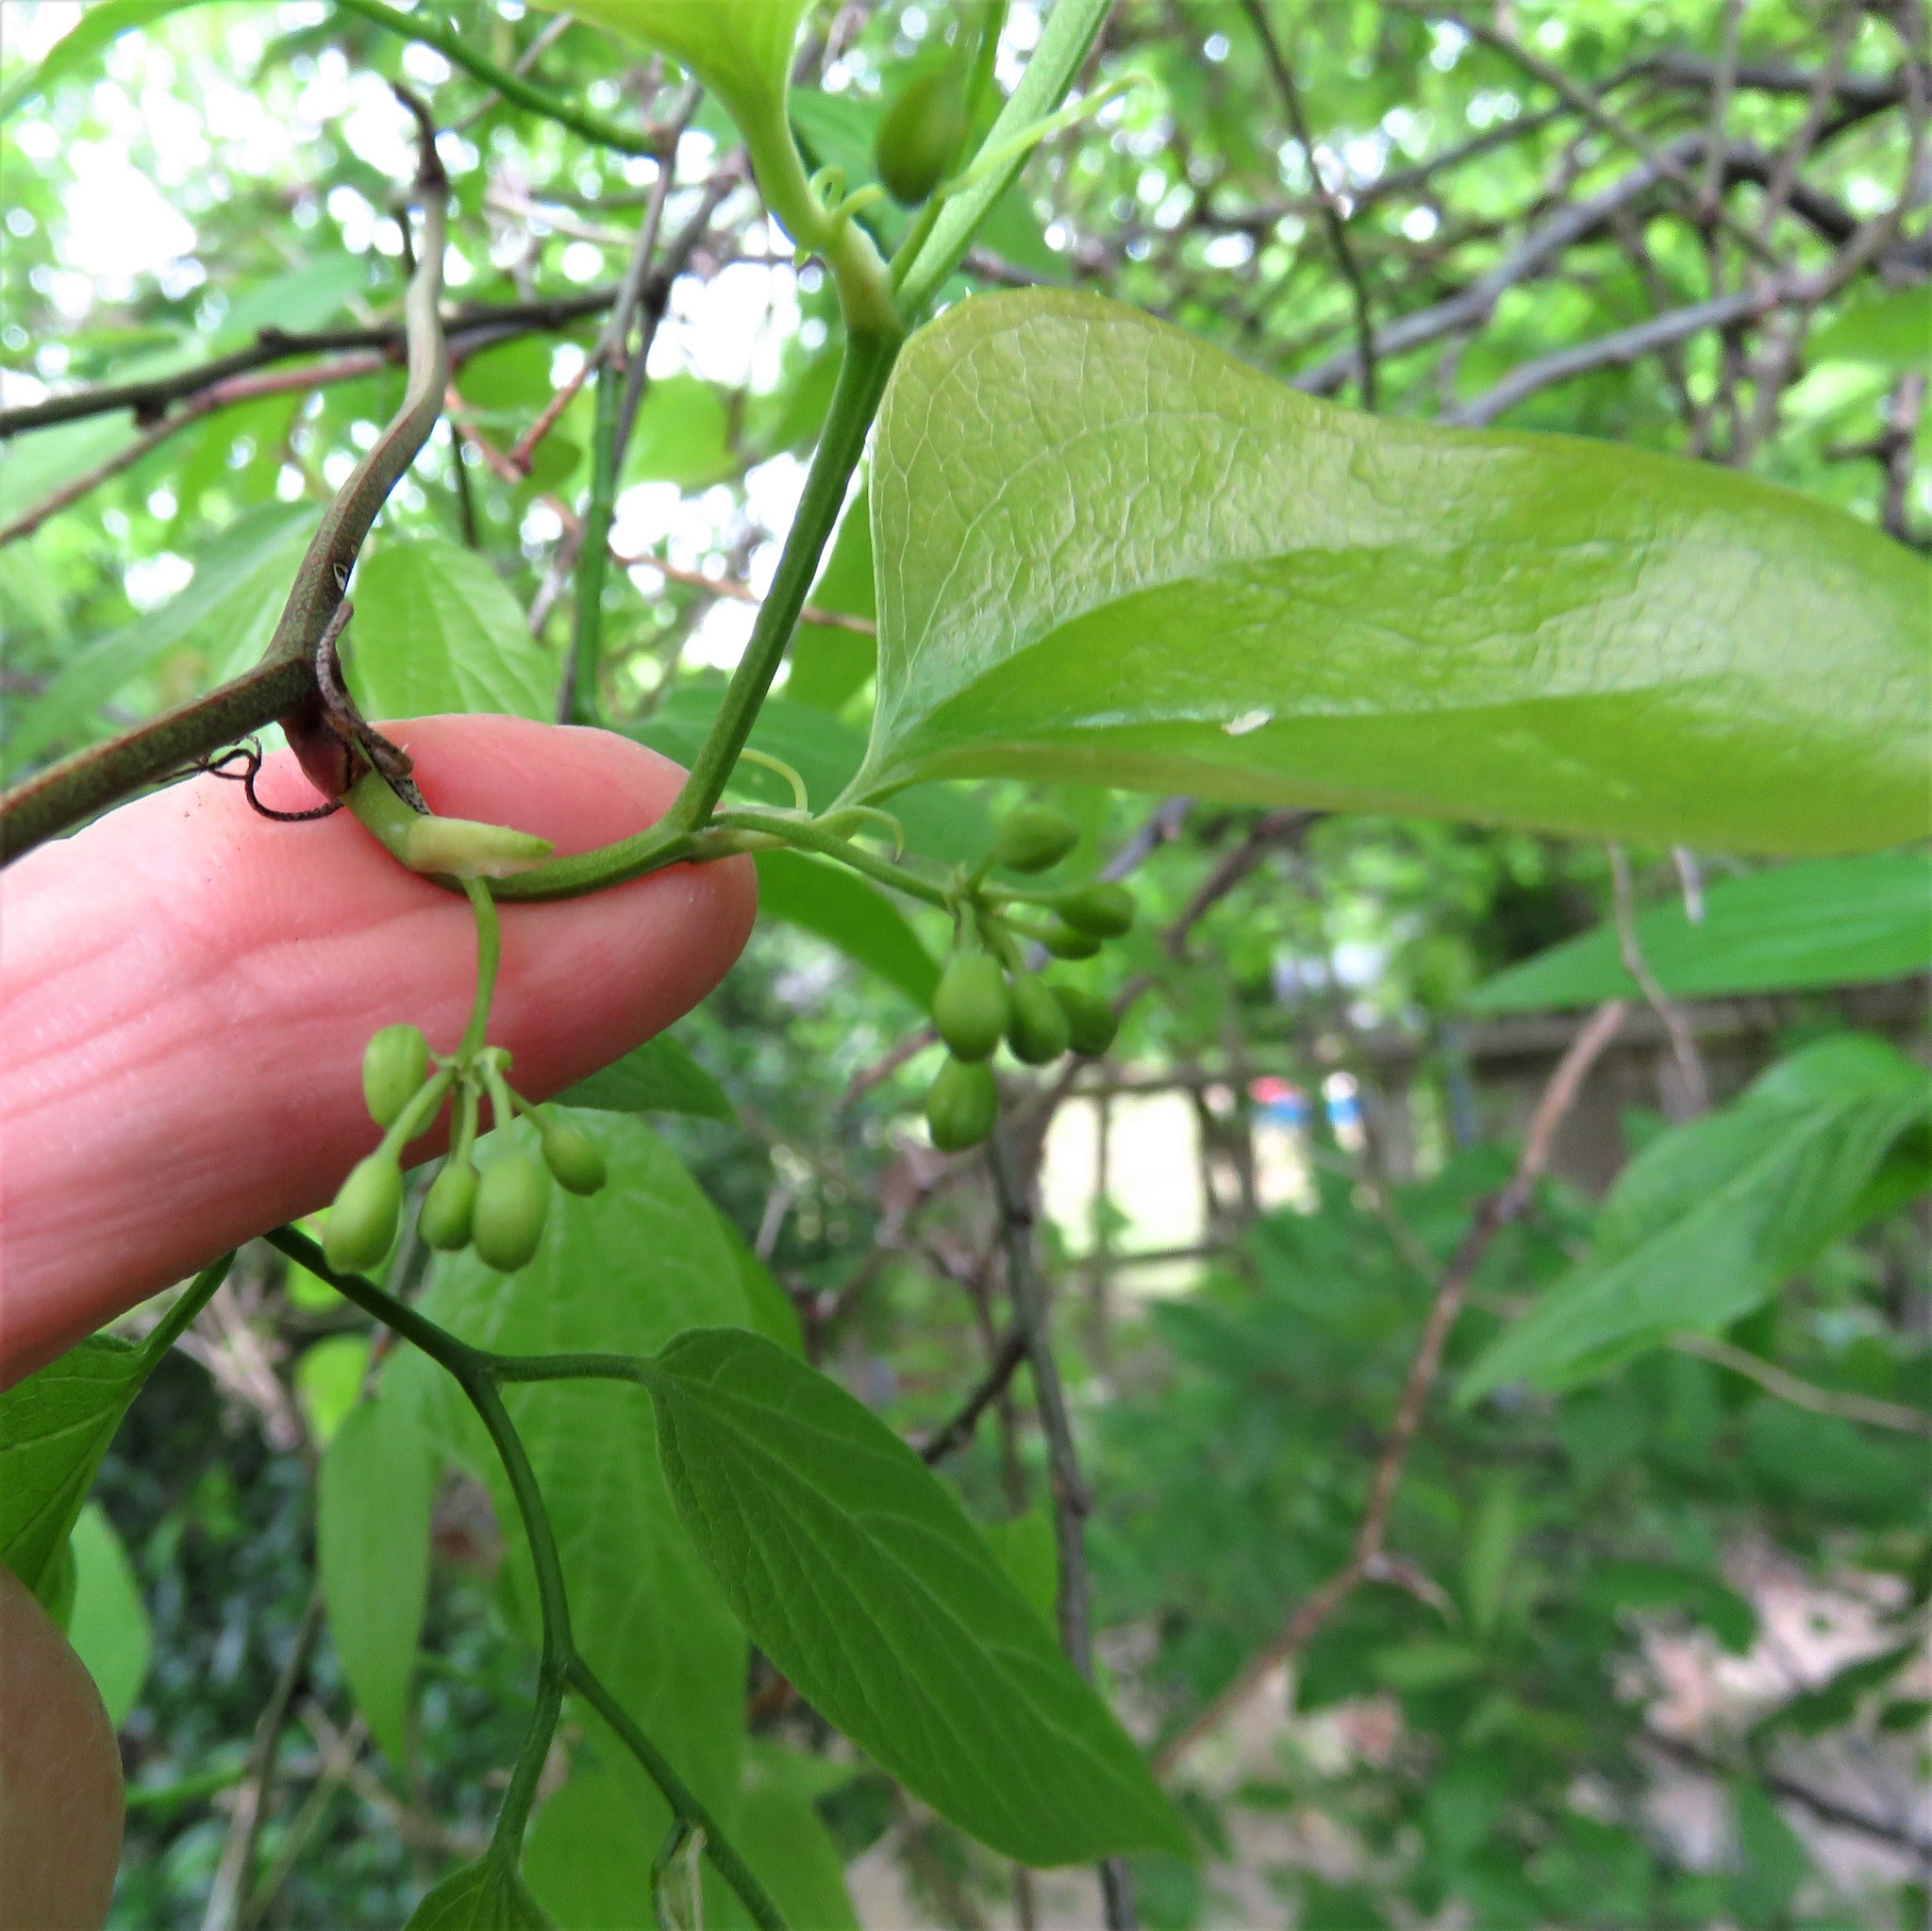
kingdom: Plantae
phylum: Tracheophyta
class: Liliopsida
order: Liliales
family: Smilacaceae
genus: Smilax
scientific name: Smilax bona-nox
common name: Catbrier
